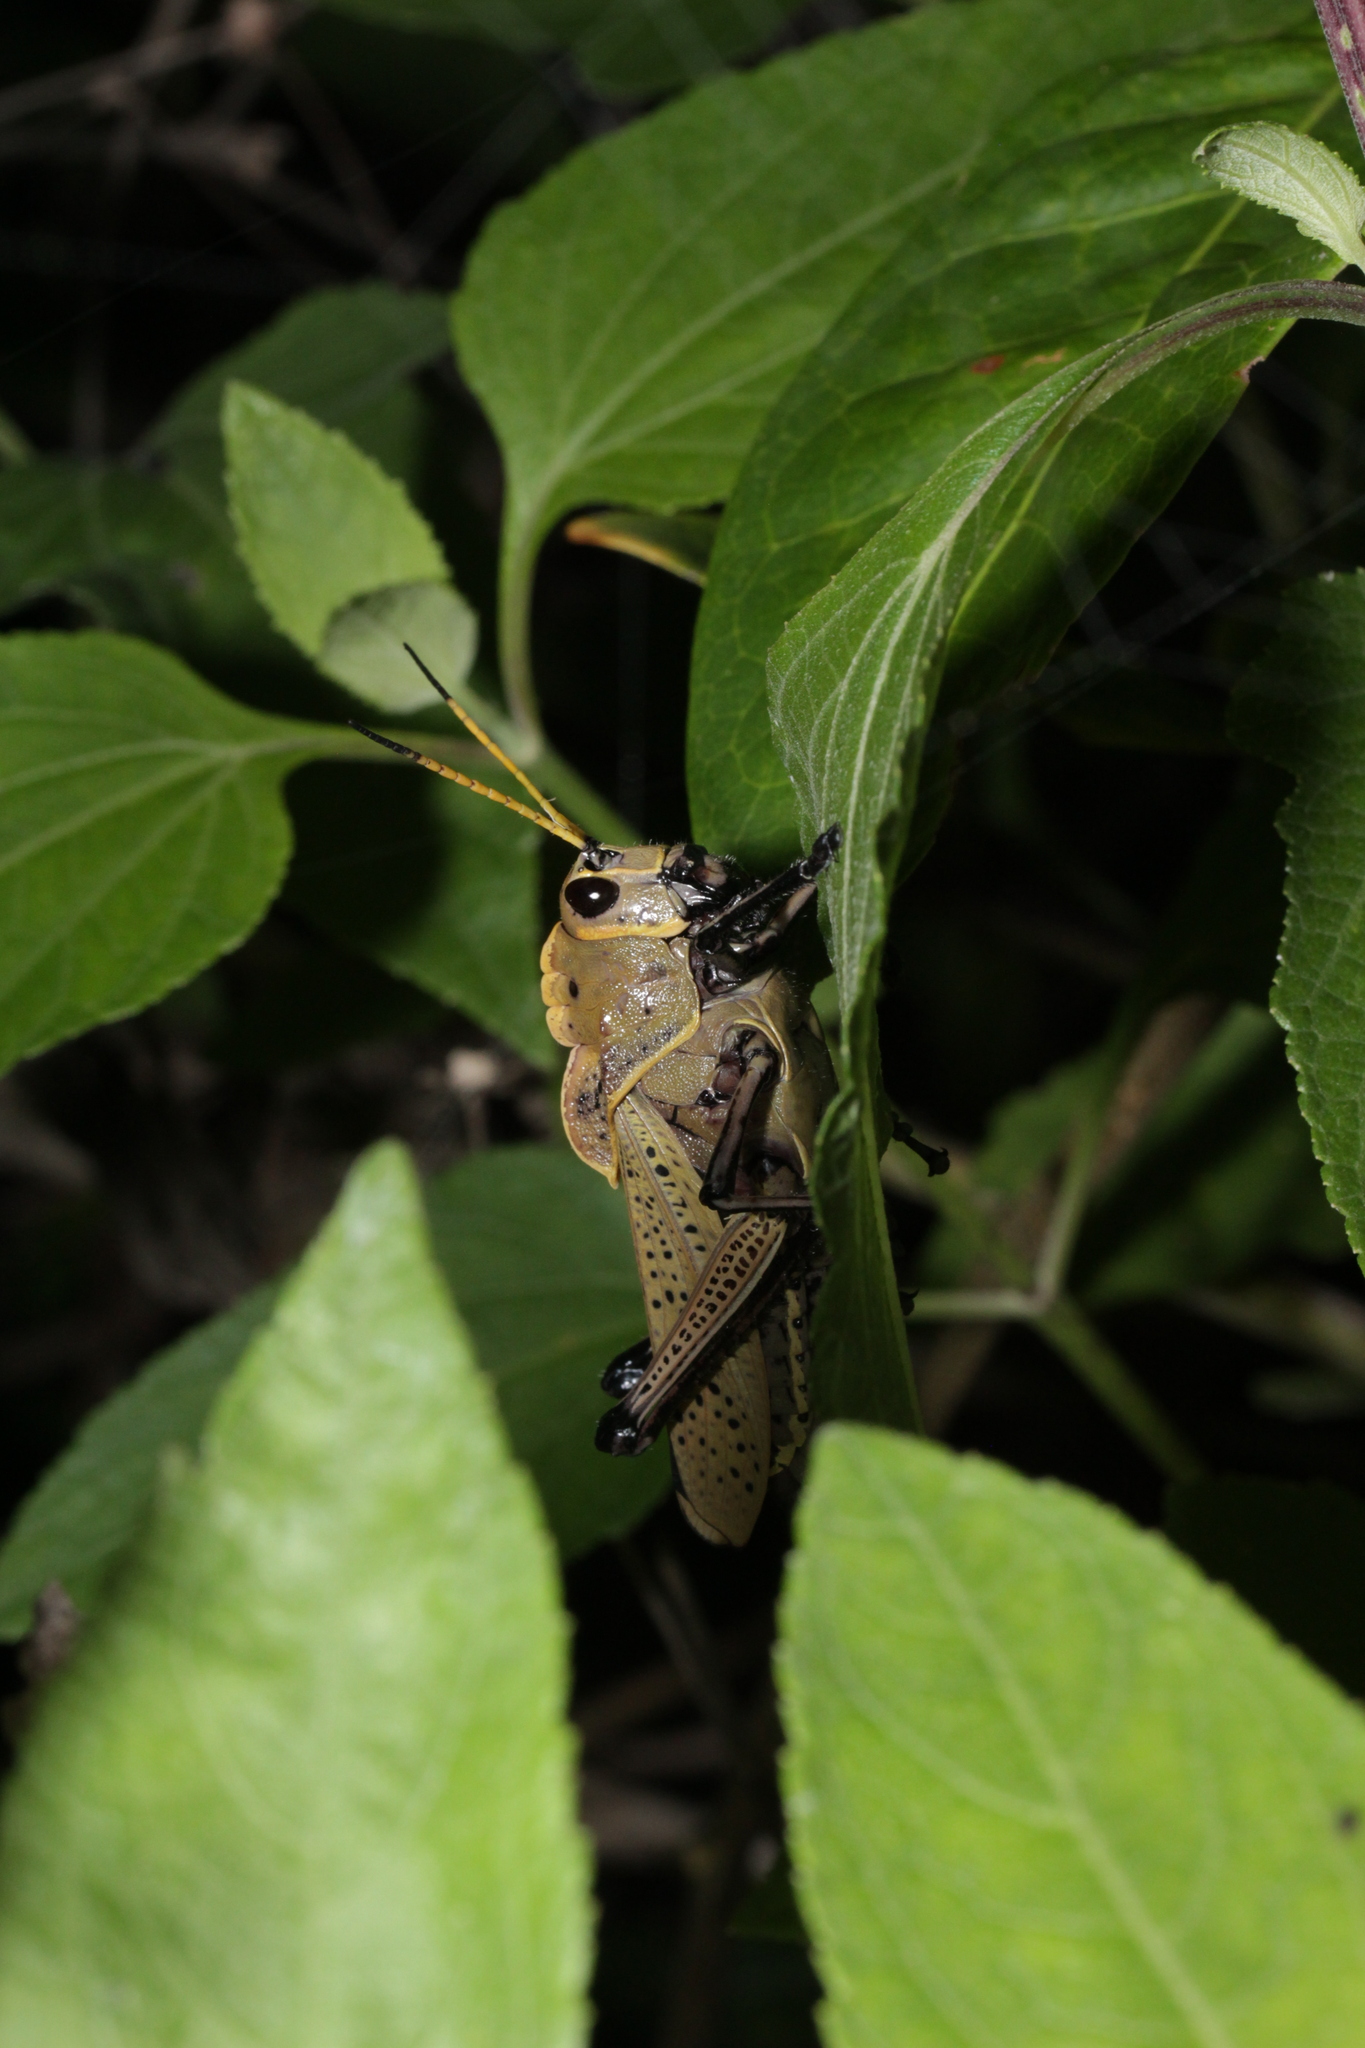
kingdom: Animalia
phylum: Arthropoda
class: Insecta
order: Orthoptera
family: Romaleidae
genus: Romalea
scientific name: Romalea
